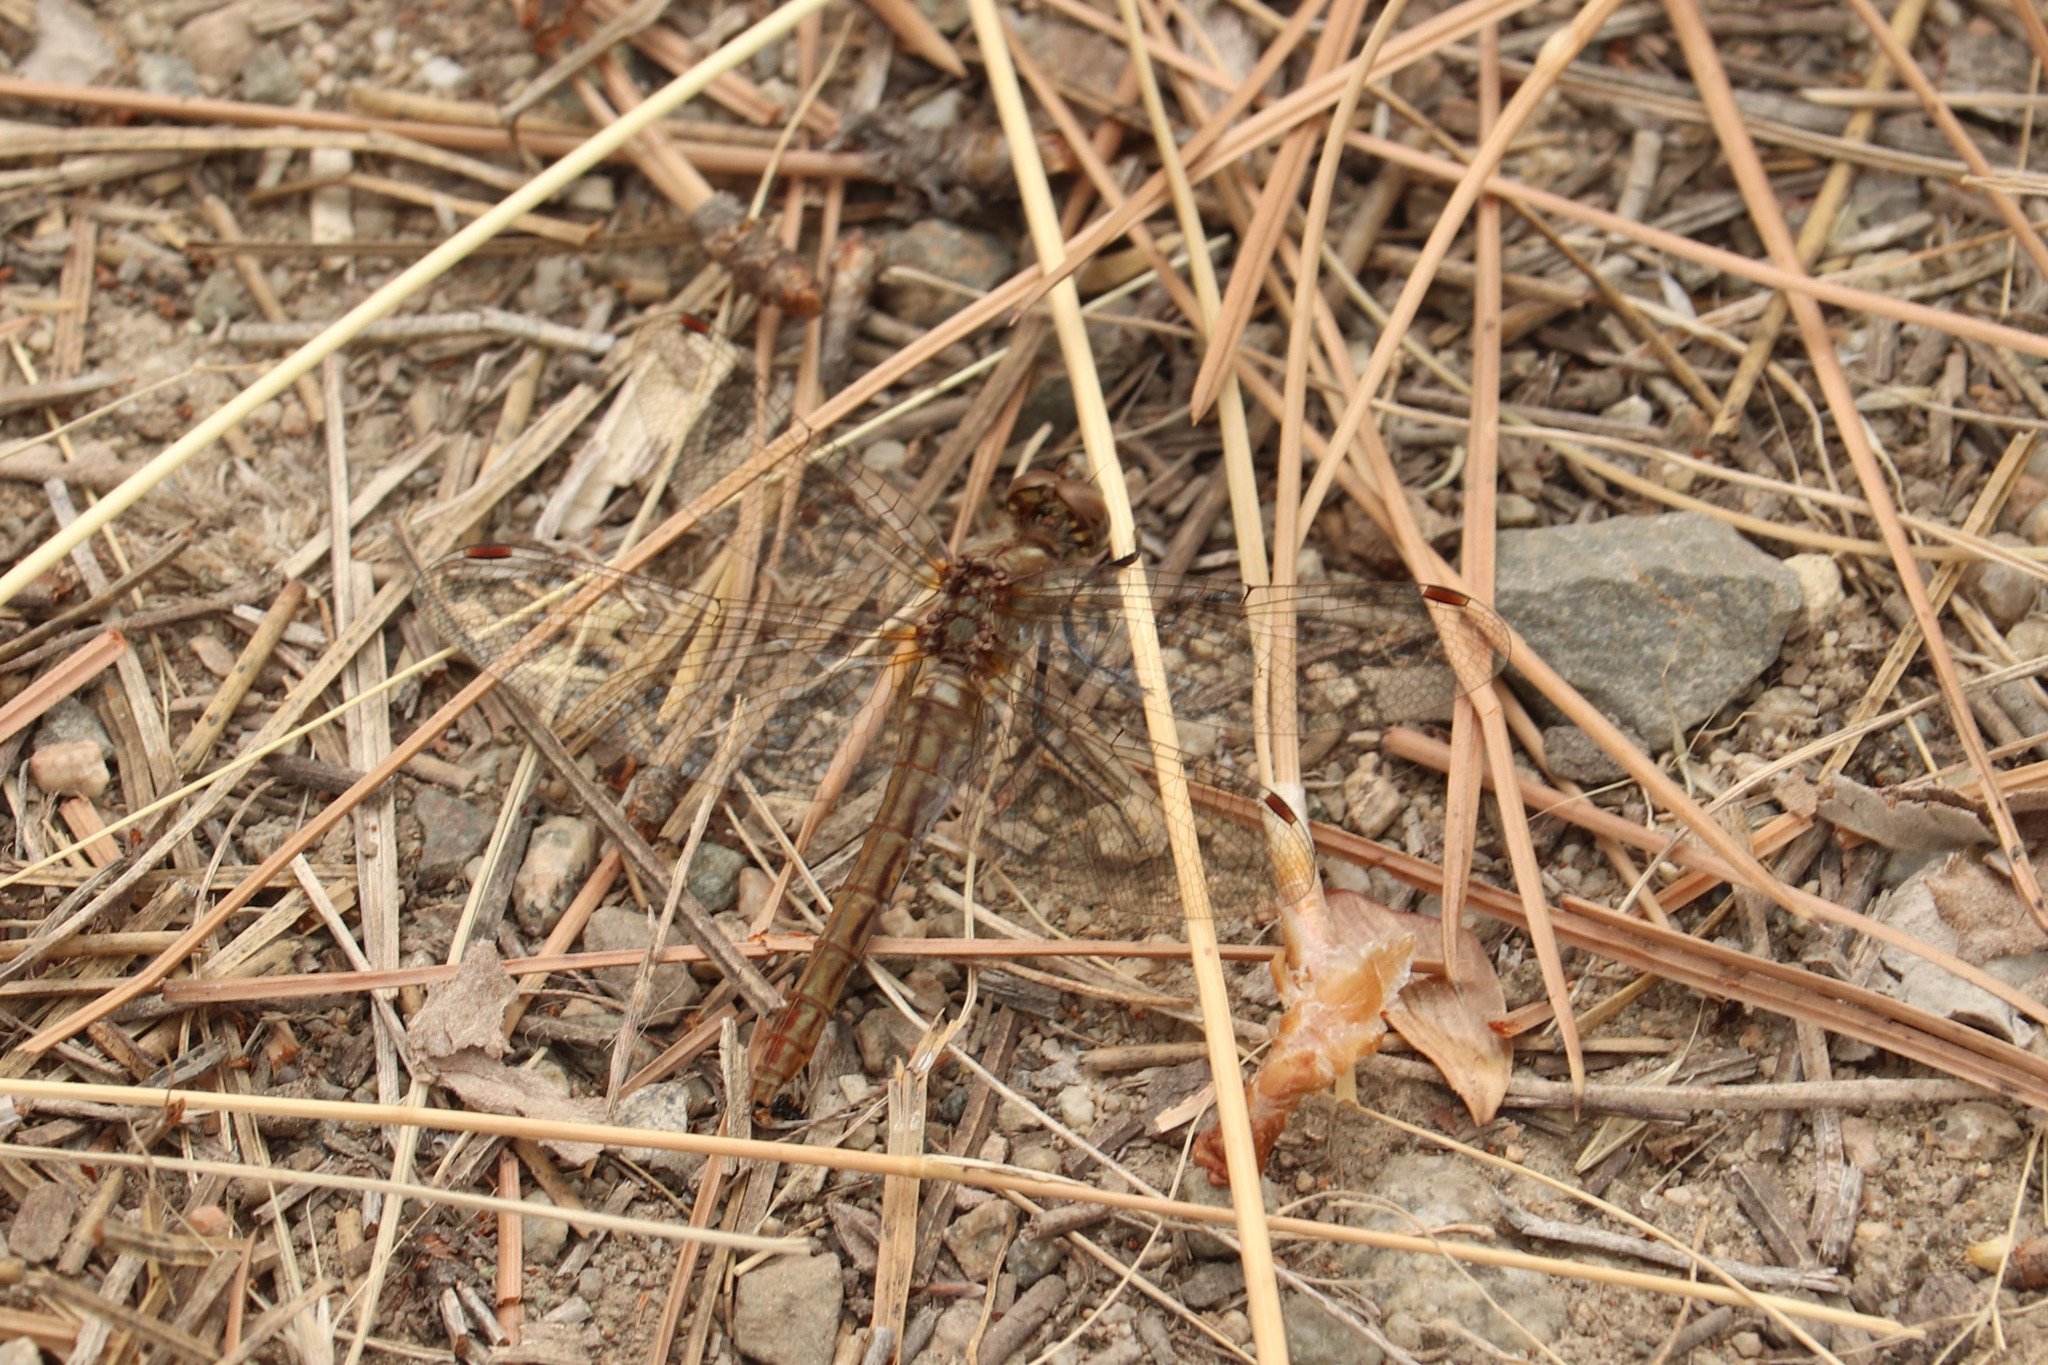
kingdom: Animalia
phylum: Arthropoda
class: Insecta
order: Odonata
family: Libellulidae
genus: Sympetrum
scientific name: Sympetrum pallipes
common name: Striped meadowhawk
